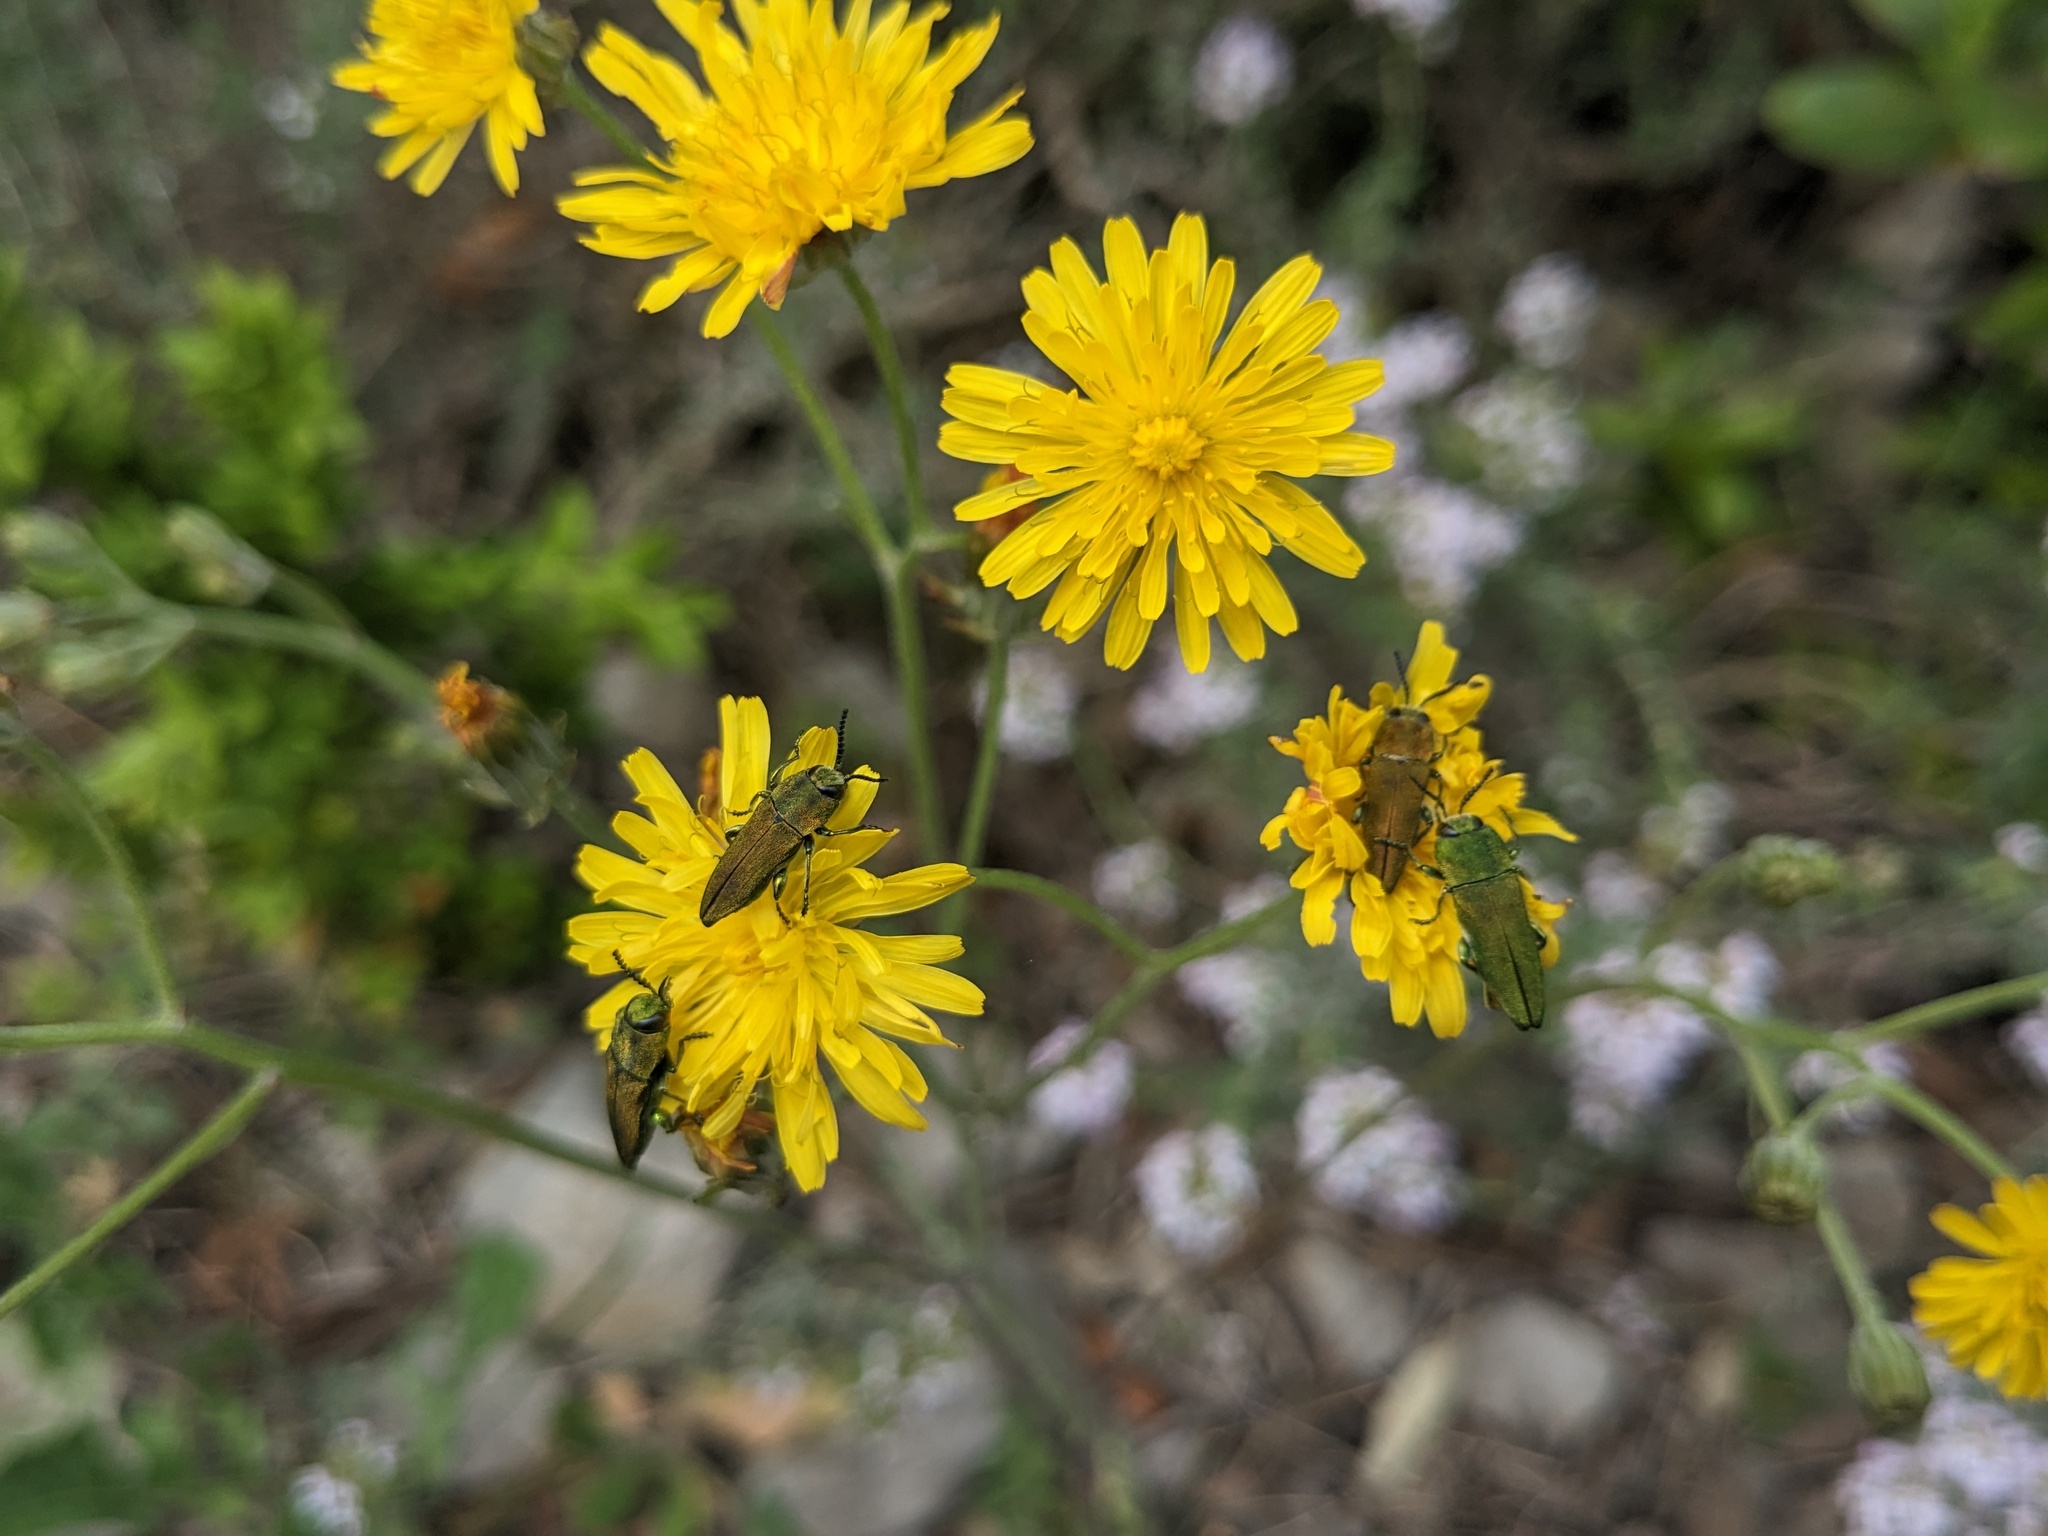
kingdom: Animalia
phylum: Arthropoda
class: Insecta
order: Coleoptera
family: Buprestidae
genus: Anthaxia
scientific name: Anthaxia hungarica
